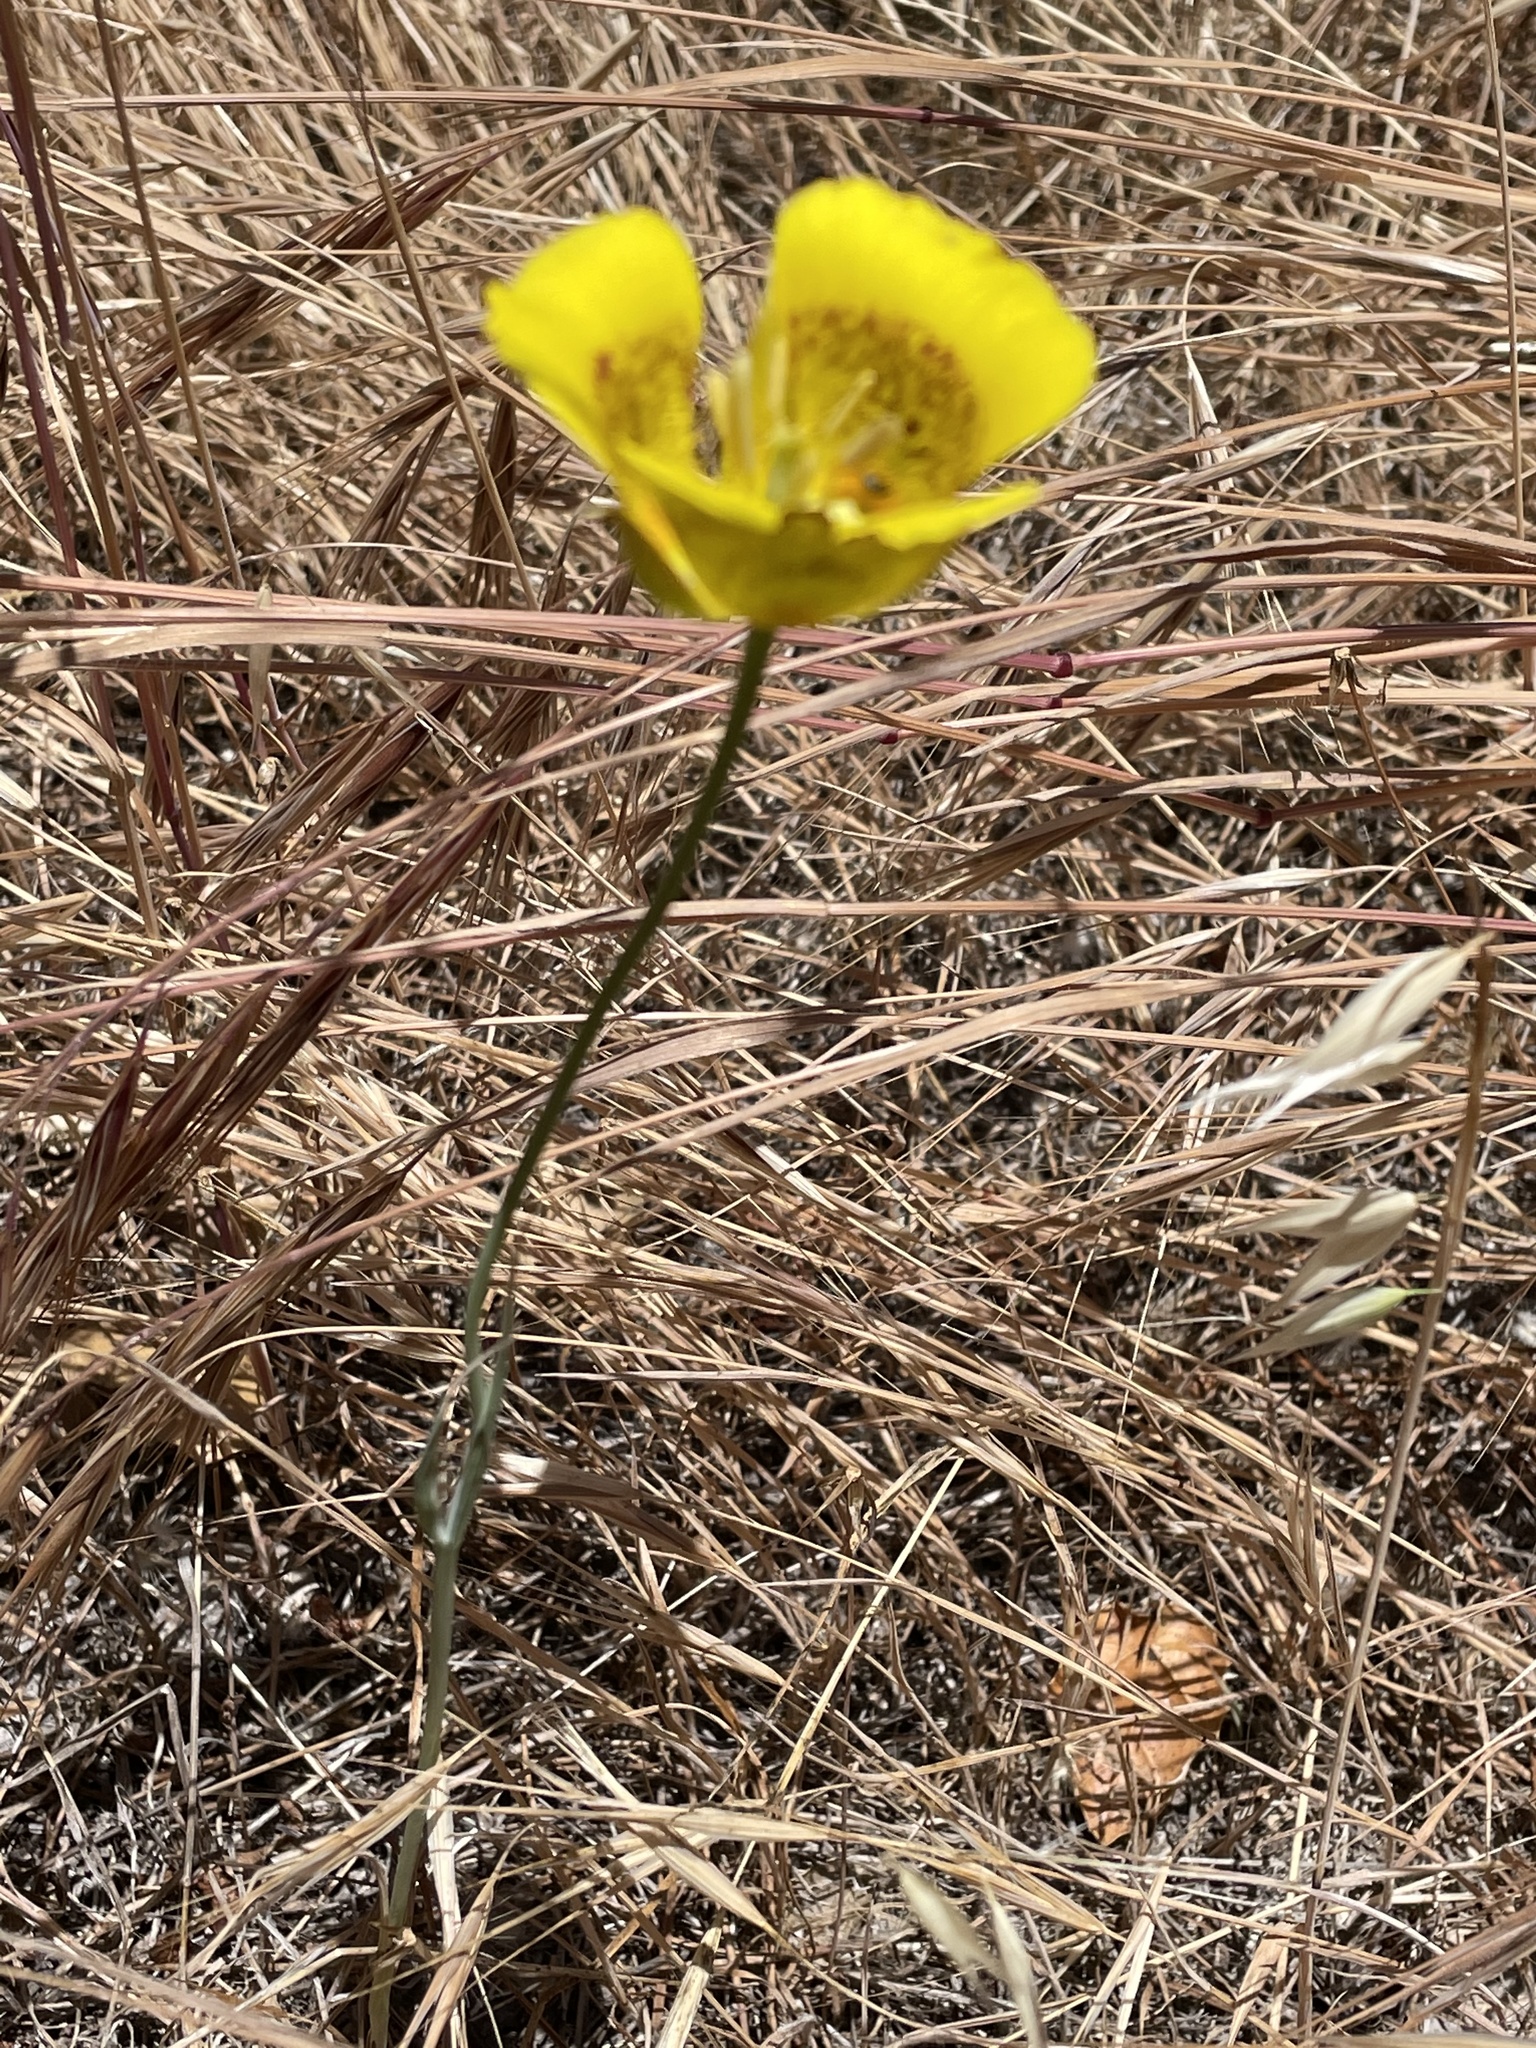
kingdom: Plantae
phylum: Tracheophyta
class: Liliopsida
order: Liliales
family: Liliaceae
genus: Calochortus
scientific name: Calochortus luteus
